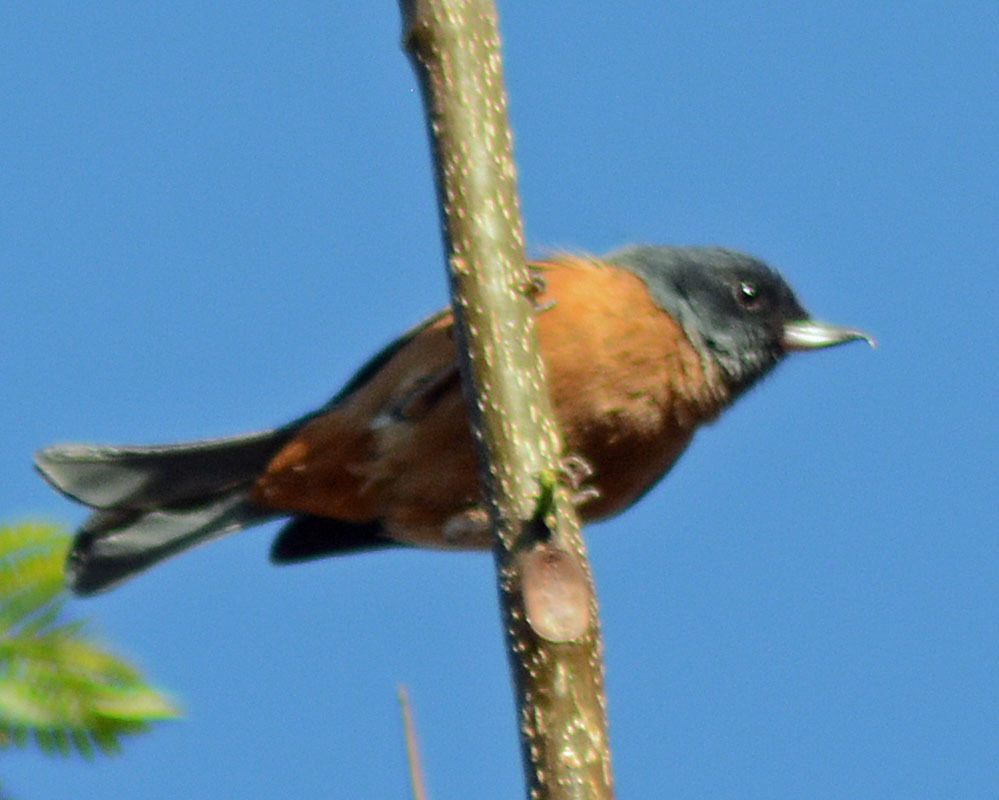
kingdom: Animalia
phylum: Chordata
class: Aves
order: Passeriformes
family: Thraupidae
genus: Diglossa
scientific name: Diglossa baritula
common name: Cinnamon-bellied flowerpiercer
